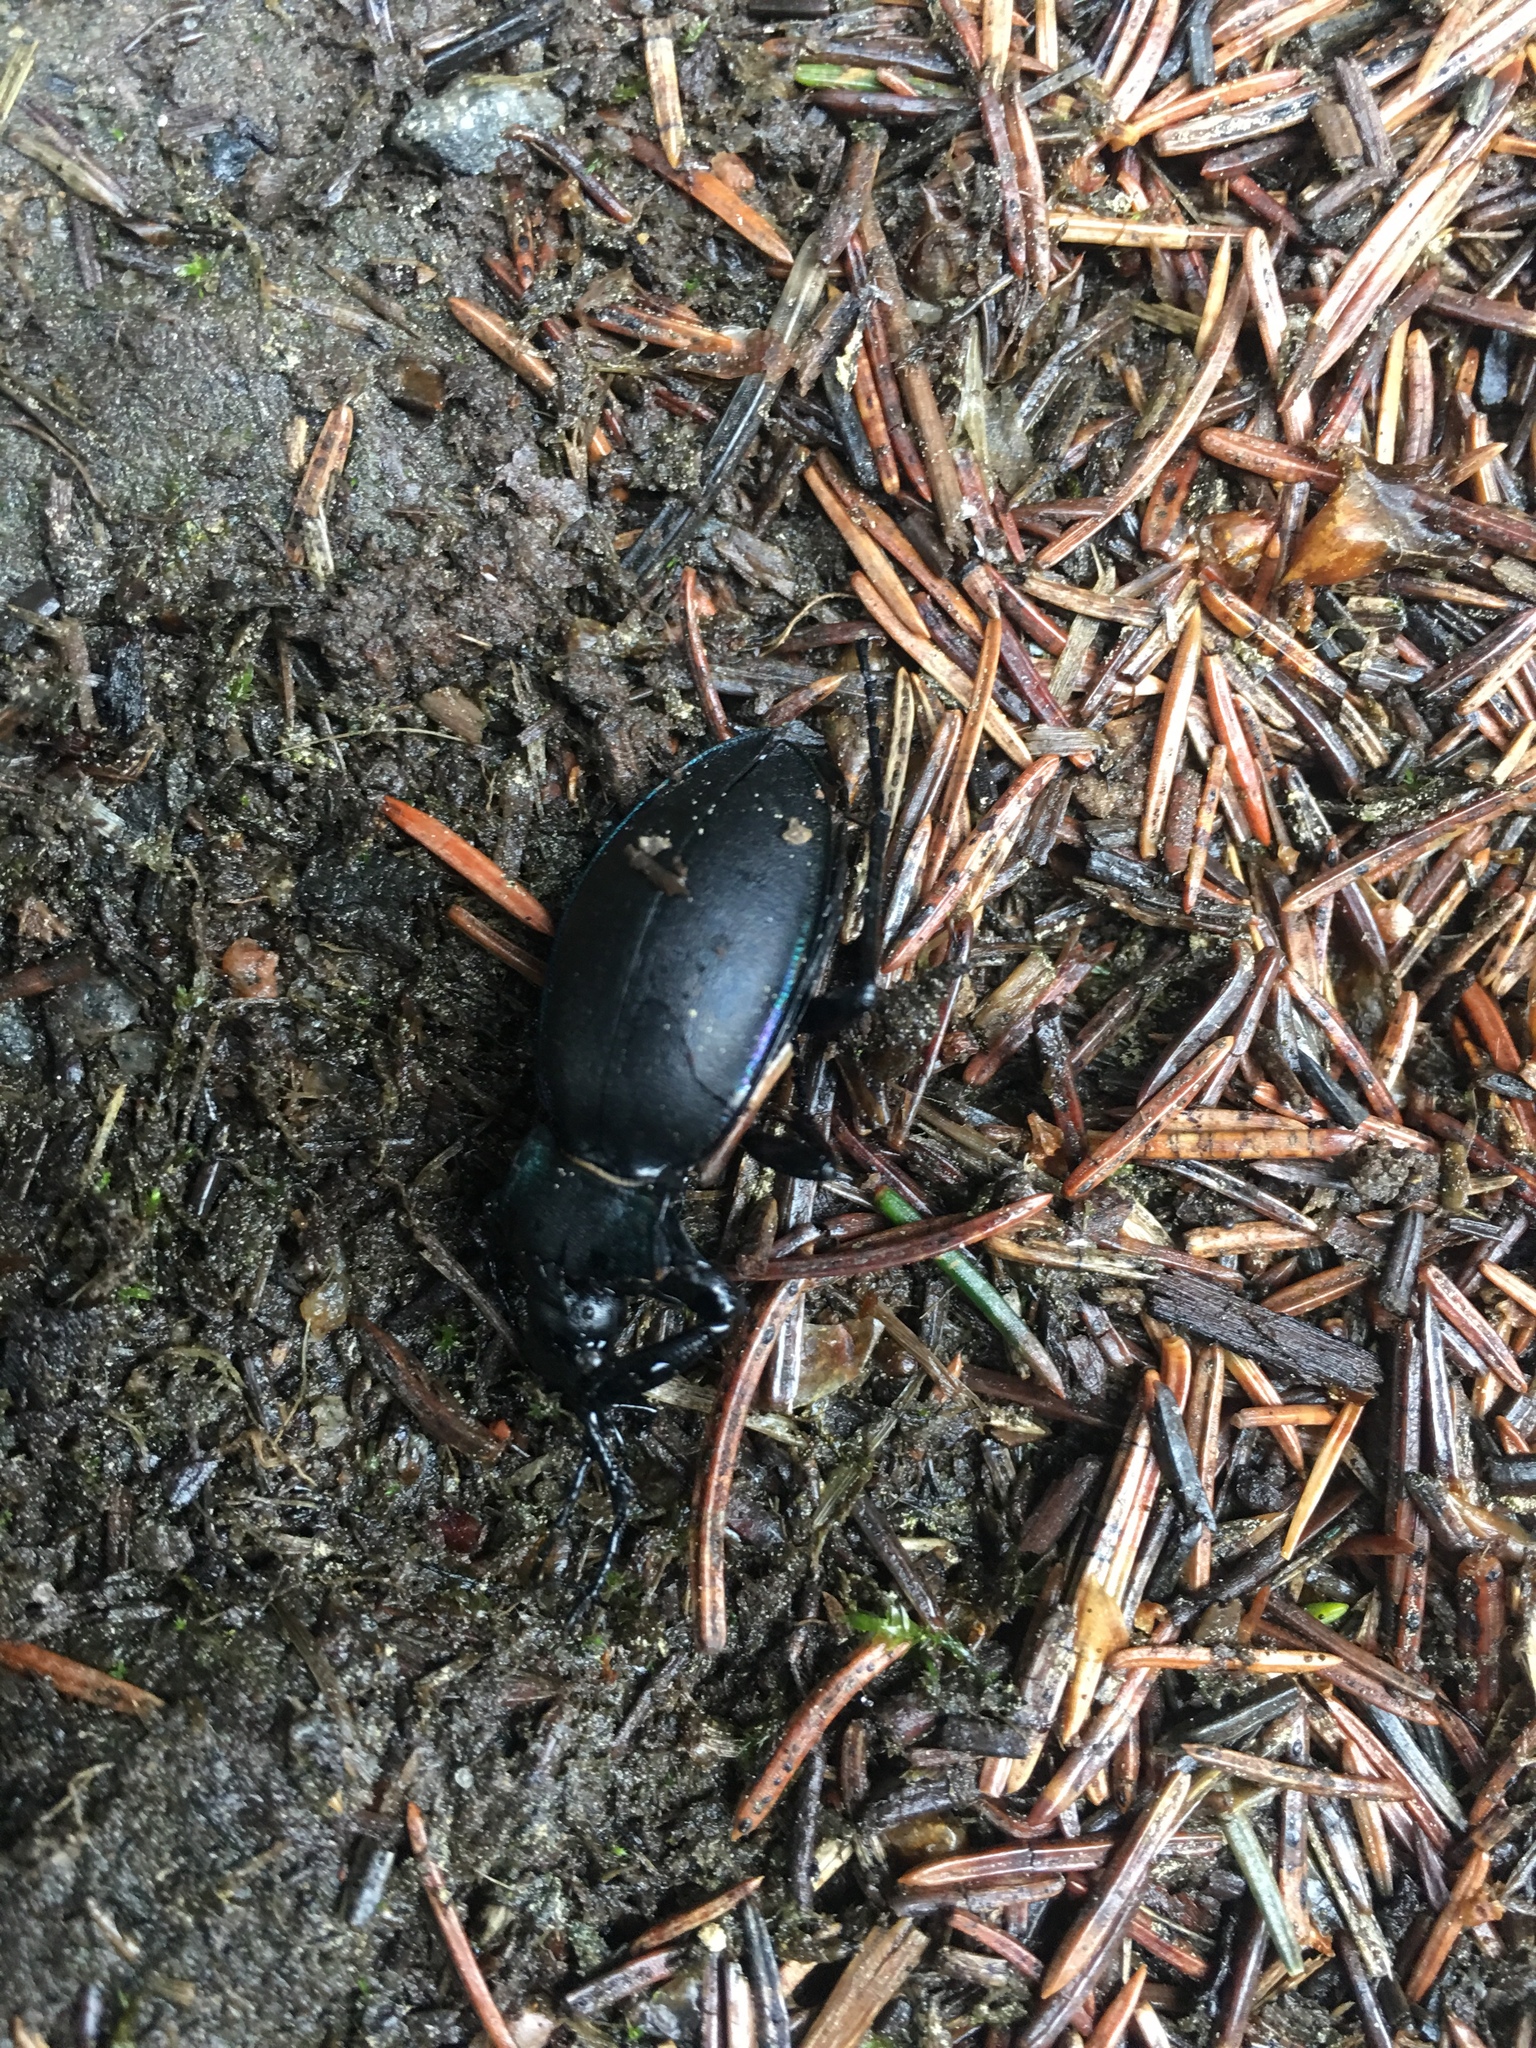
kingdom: Animalia
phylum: Arthropoda
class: Insecta
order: Coleoptera
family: Carabidae
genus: Carabus
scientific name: Carabus violaceus
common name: Violet ground beetle
